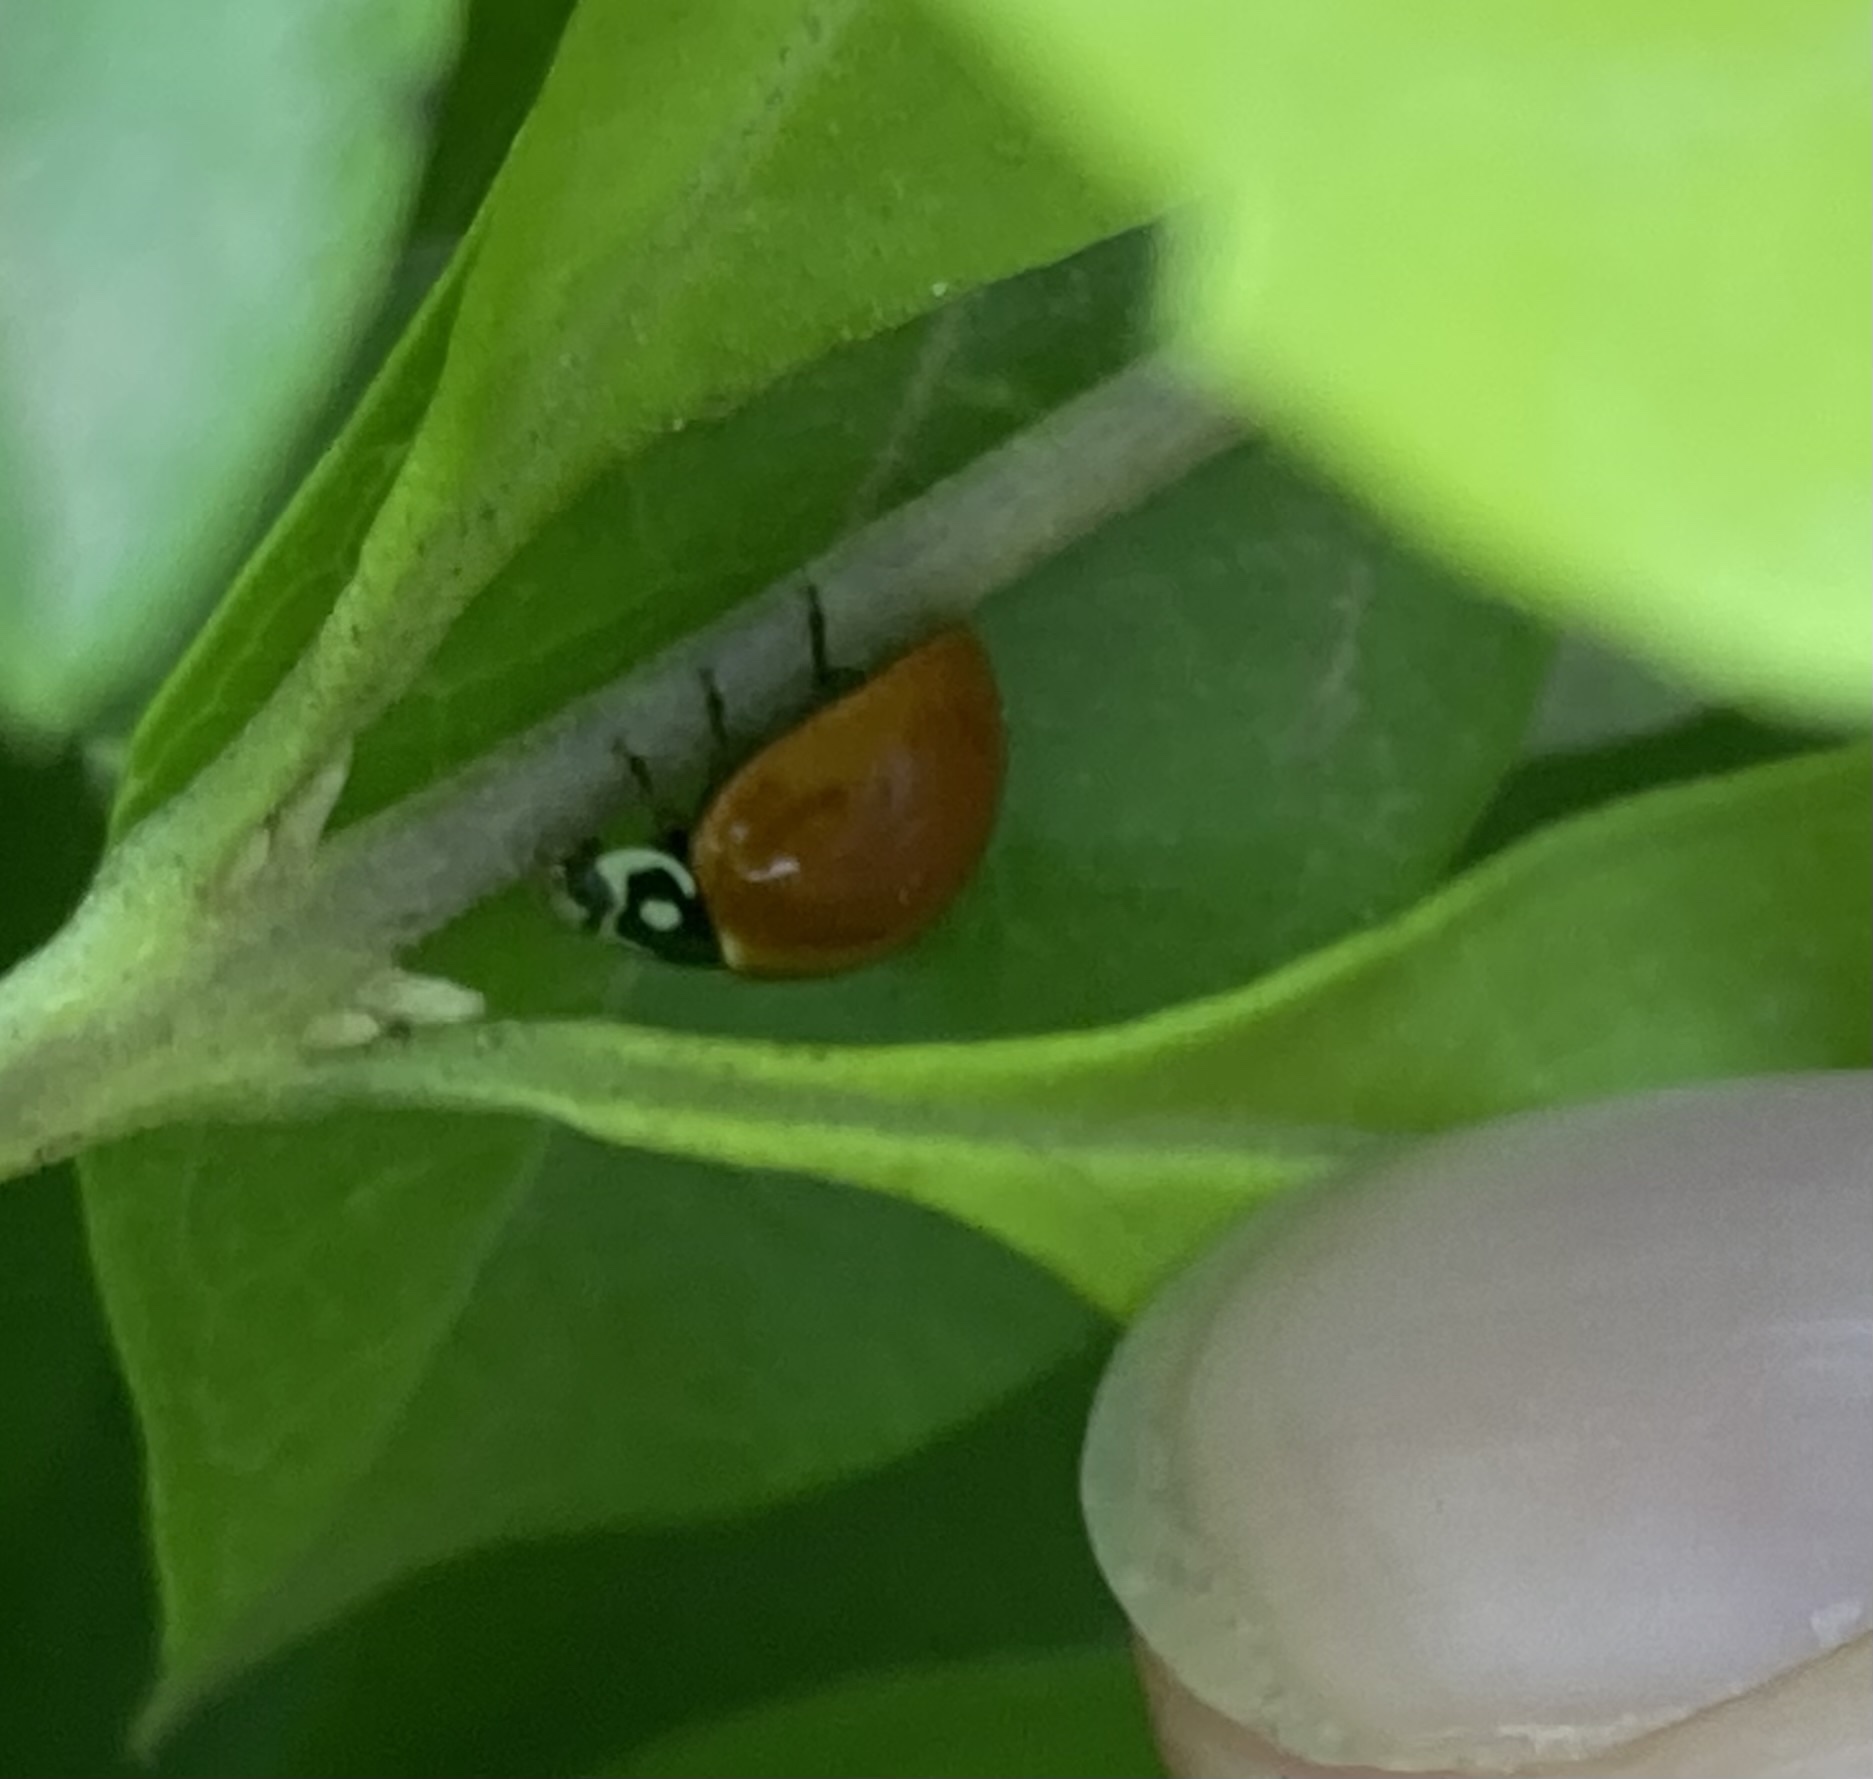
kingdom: Animalia
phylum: Arthropoda
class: Insecta
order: Coleoptera
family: Coccinellidae
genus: Cycloneda
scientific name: Cycloneda sanguinea
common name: Ladybird beetle
